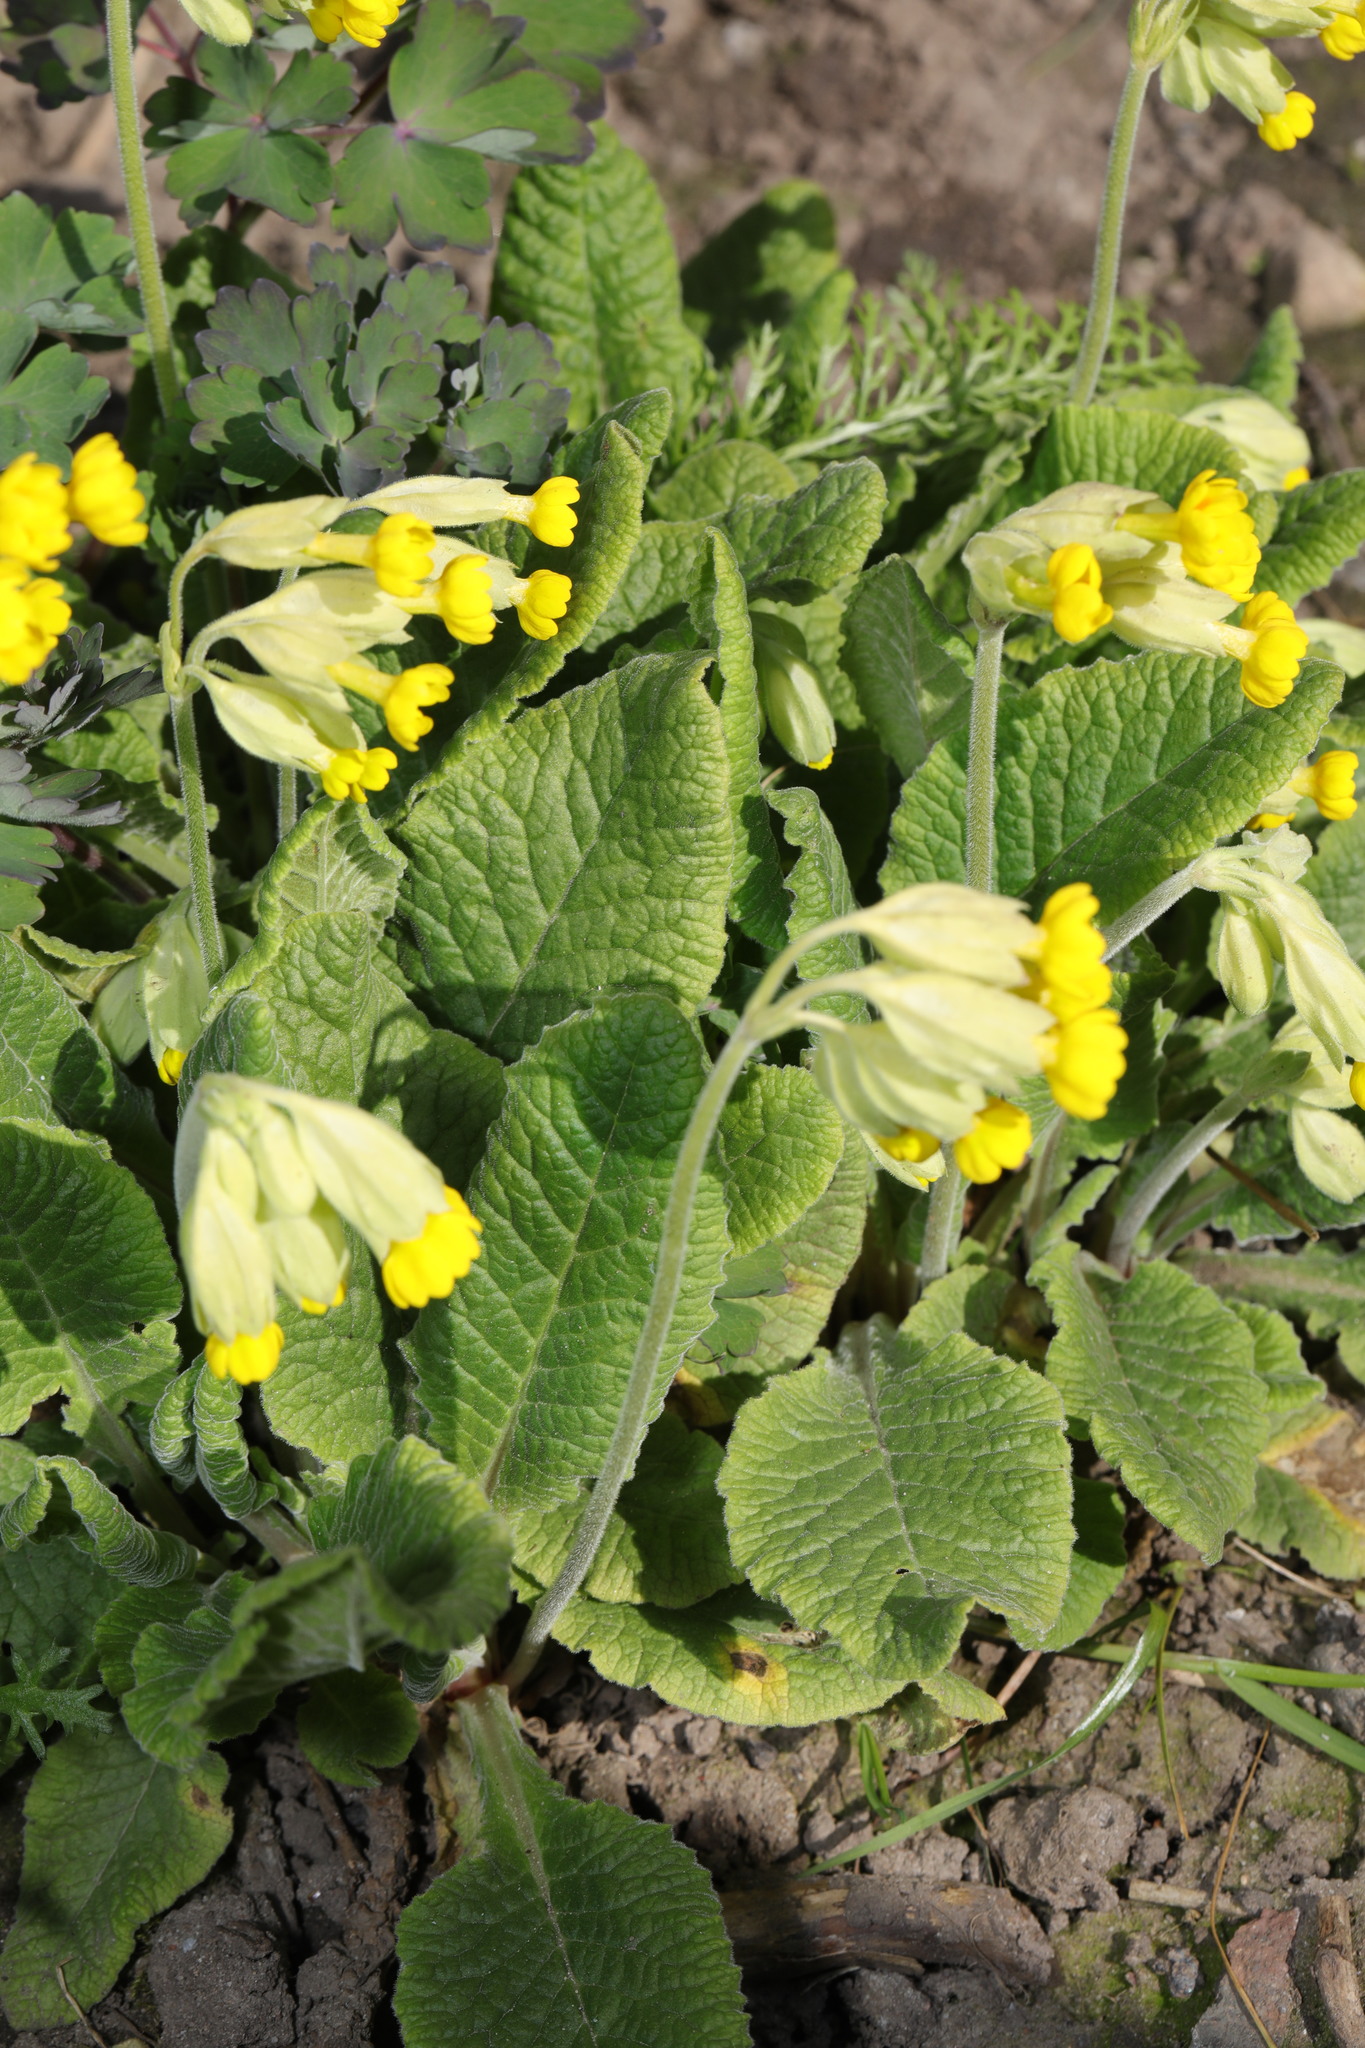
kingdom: Plantae
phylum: Tracheophyta
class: Magnoliopsida
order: Ericales
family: Primulaceae
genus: Primula
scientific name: Primula veris
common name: Cowslip
